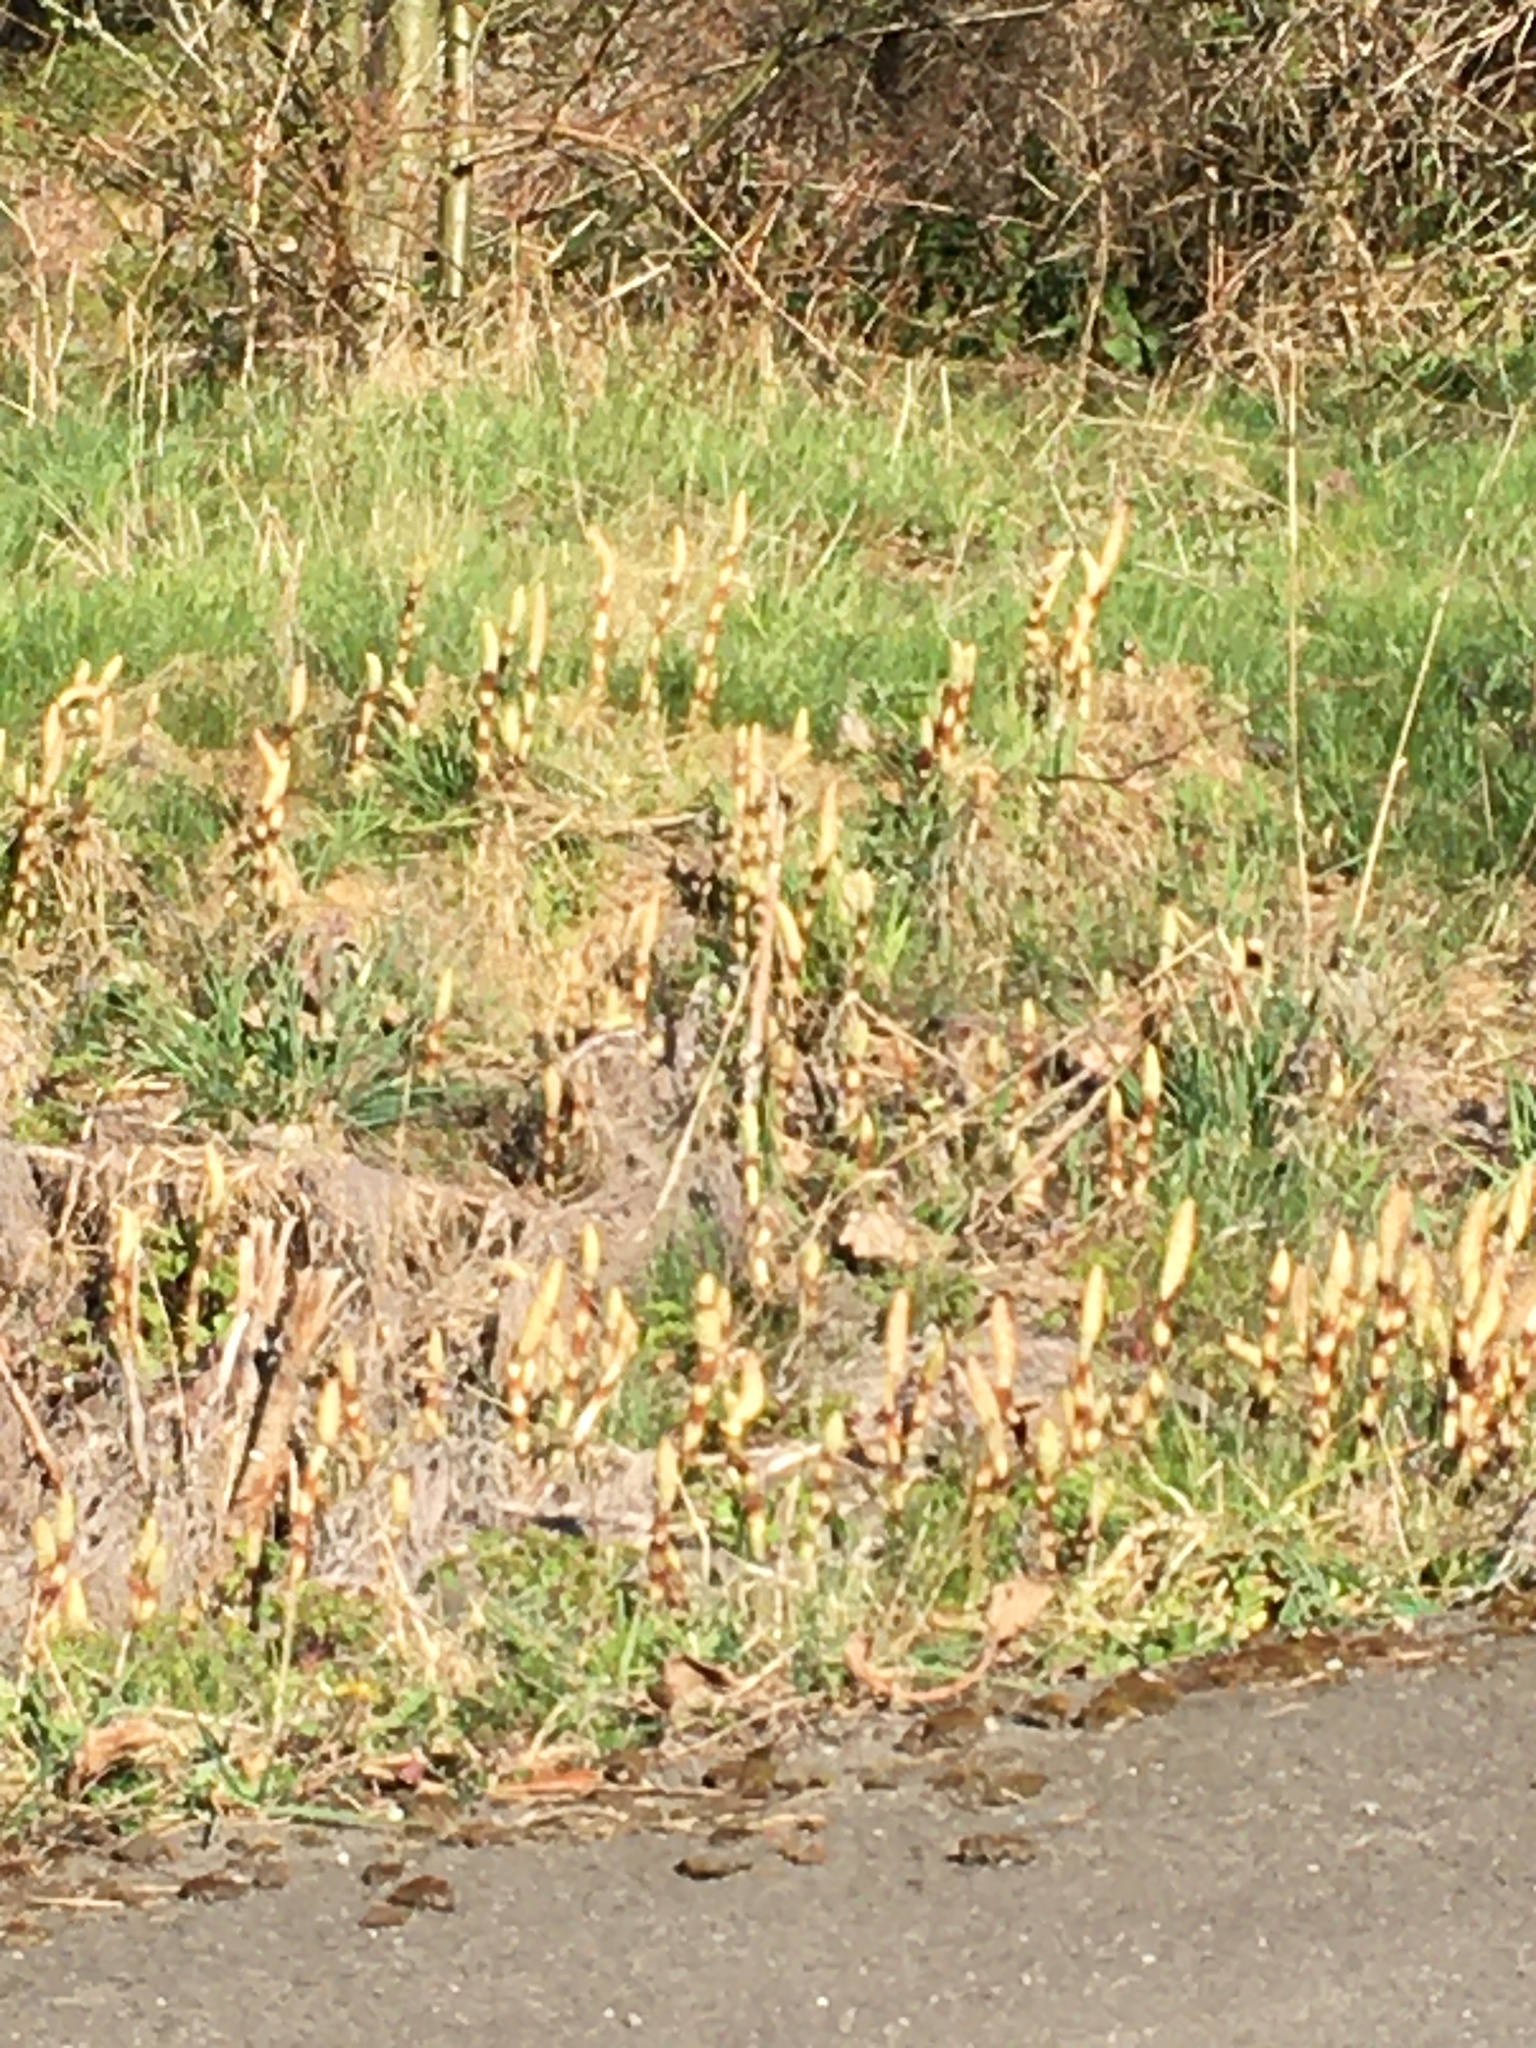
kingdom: Plantae
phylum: Tracheophyta
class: Polypodiopsida
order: Equisetales
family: Equisetaceae
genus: Equisetum
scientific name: Equisetum braunii
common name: Braun's horsetail
